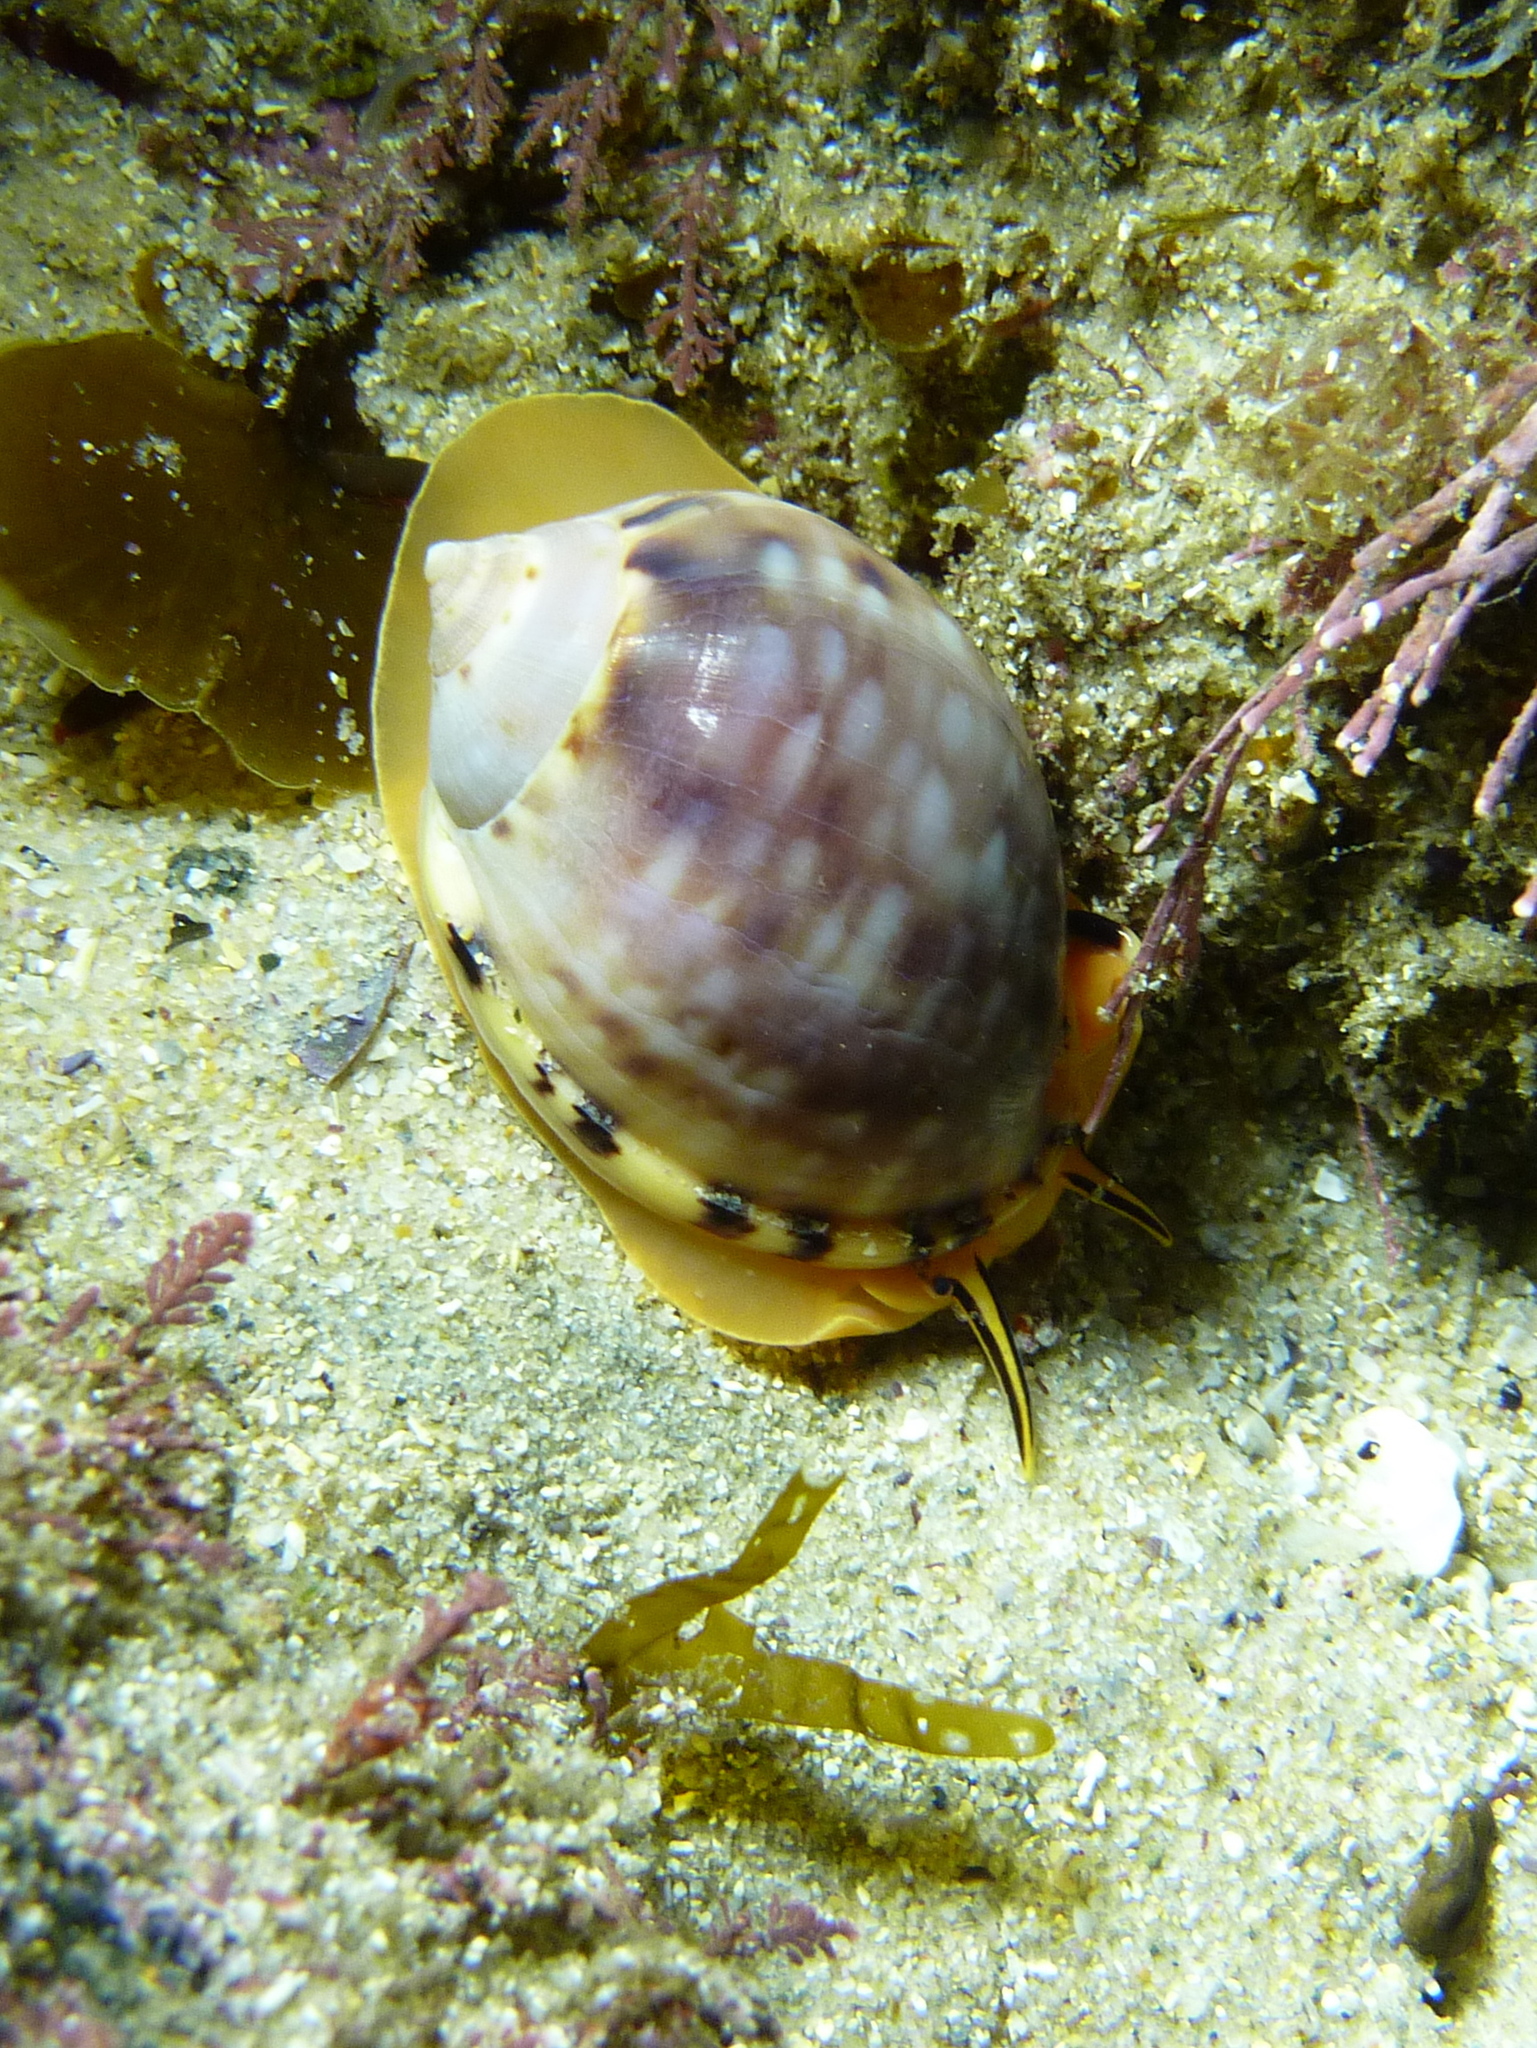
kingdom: Animalia
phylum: Mollusca
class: Gastropoda
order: Littorinimorpha
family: Cassidae
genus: Semicassis
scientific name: Semicassis labiata
